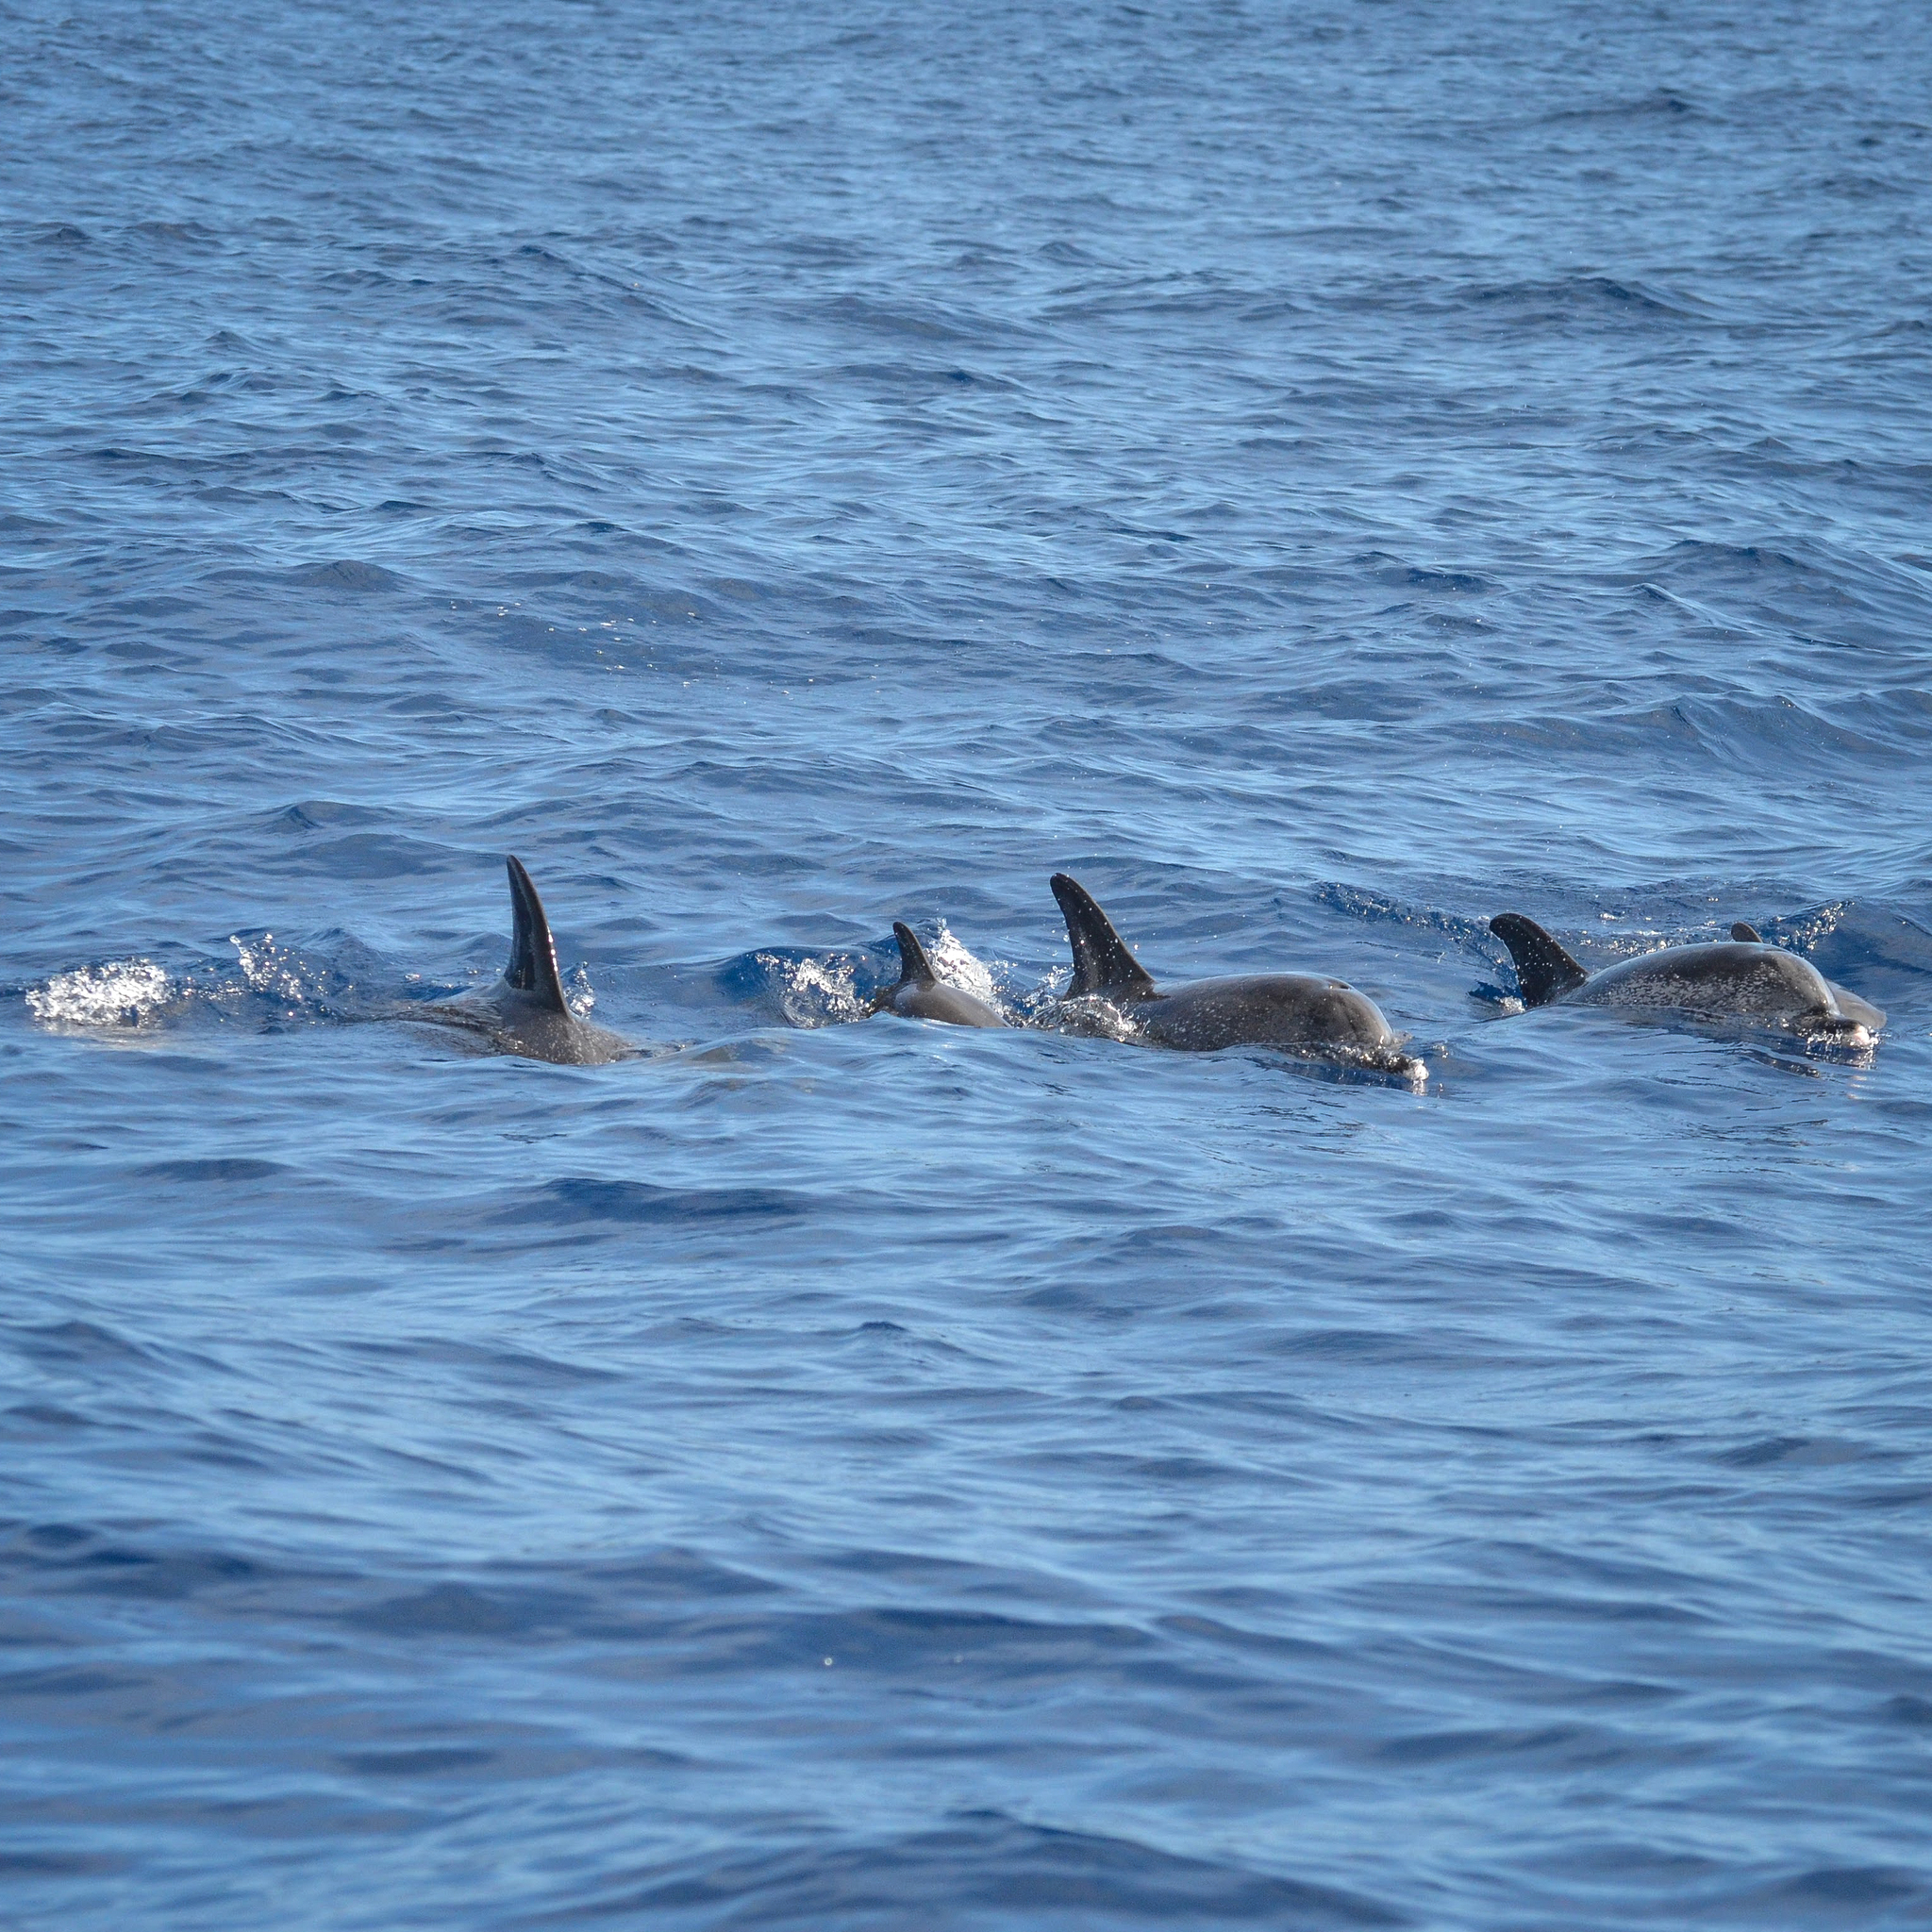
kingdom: Animalia
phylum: Chordata
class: Mammalia
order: Cetacea
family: Delphinidae
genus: Stenella
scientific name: Stenella frontalis
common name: Atlantic spotted dolphin
